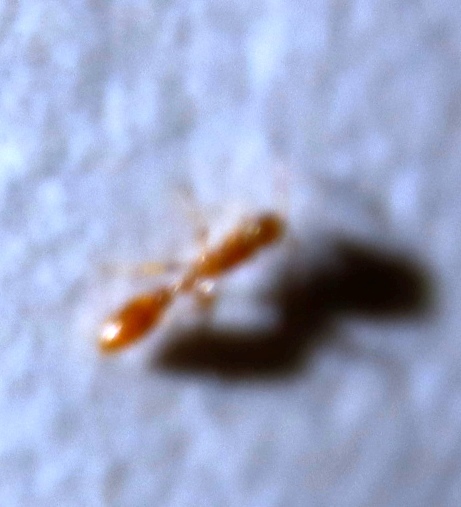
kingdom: Animalia
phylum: Arthropoda
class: Insecta
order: Hymenoptera
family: Formicidae
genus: Tetraponera
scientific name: Tetraponera emeryi
